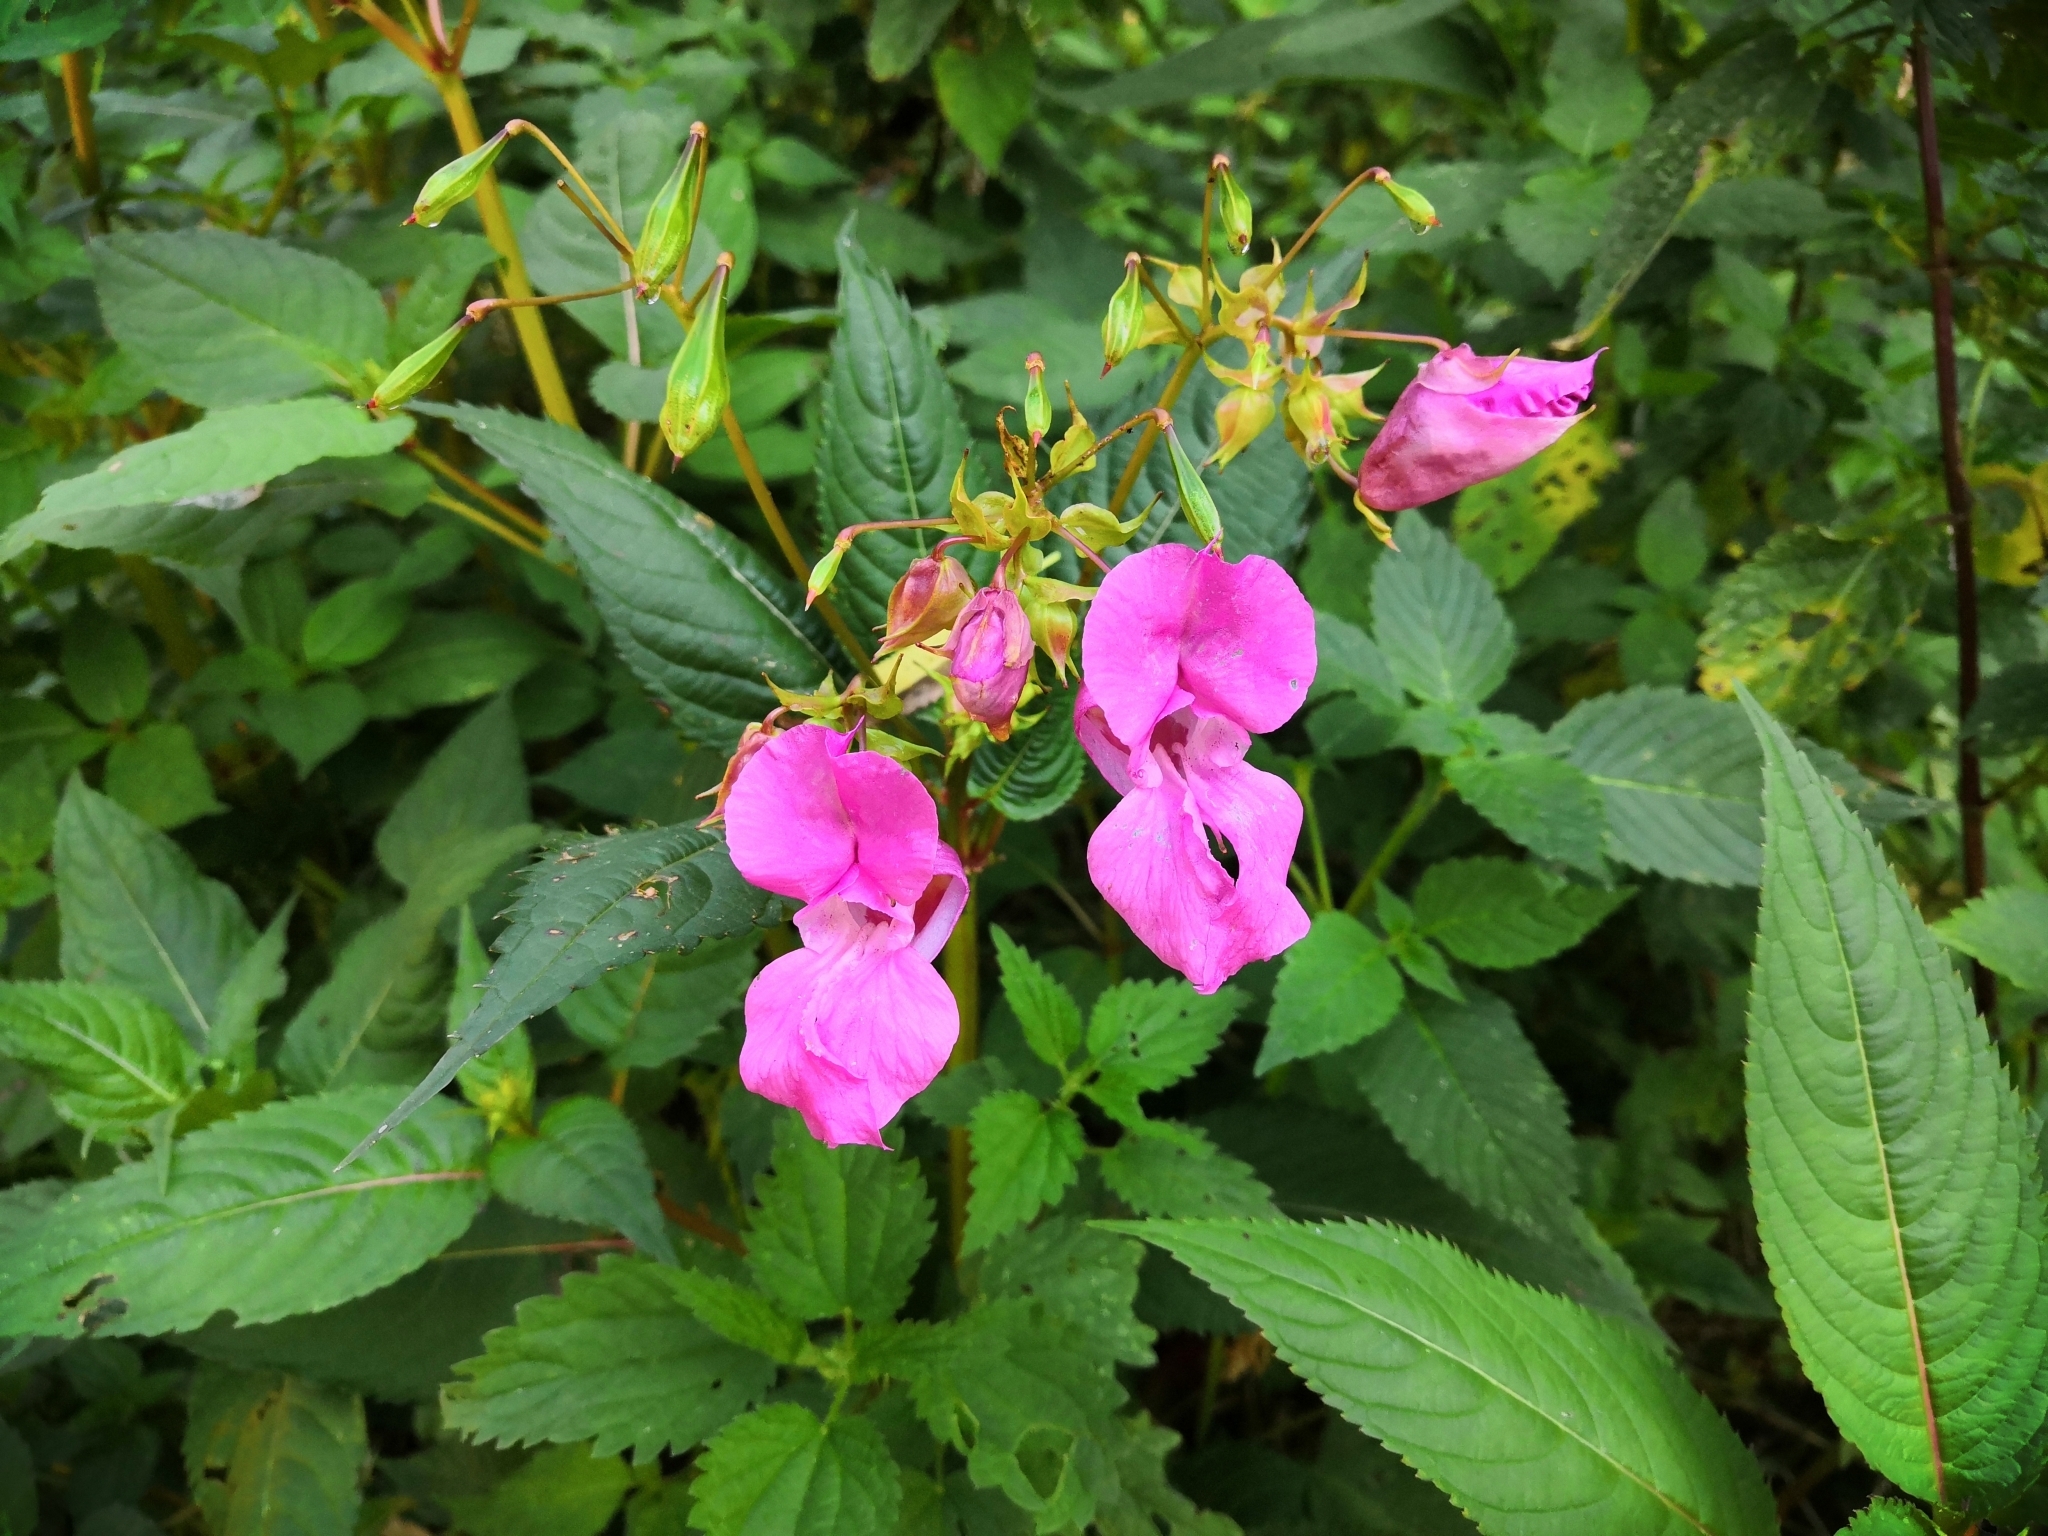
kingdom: Plantae
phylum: Tracheophyta
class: Magnoliopsida
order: Ericales
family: Balsaminaceae
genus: Impatiens
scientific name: Impatiens glandulifera
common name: Himalayan balsam
